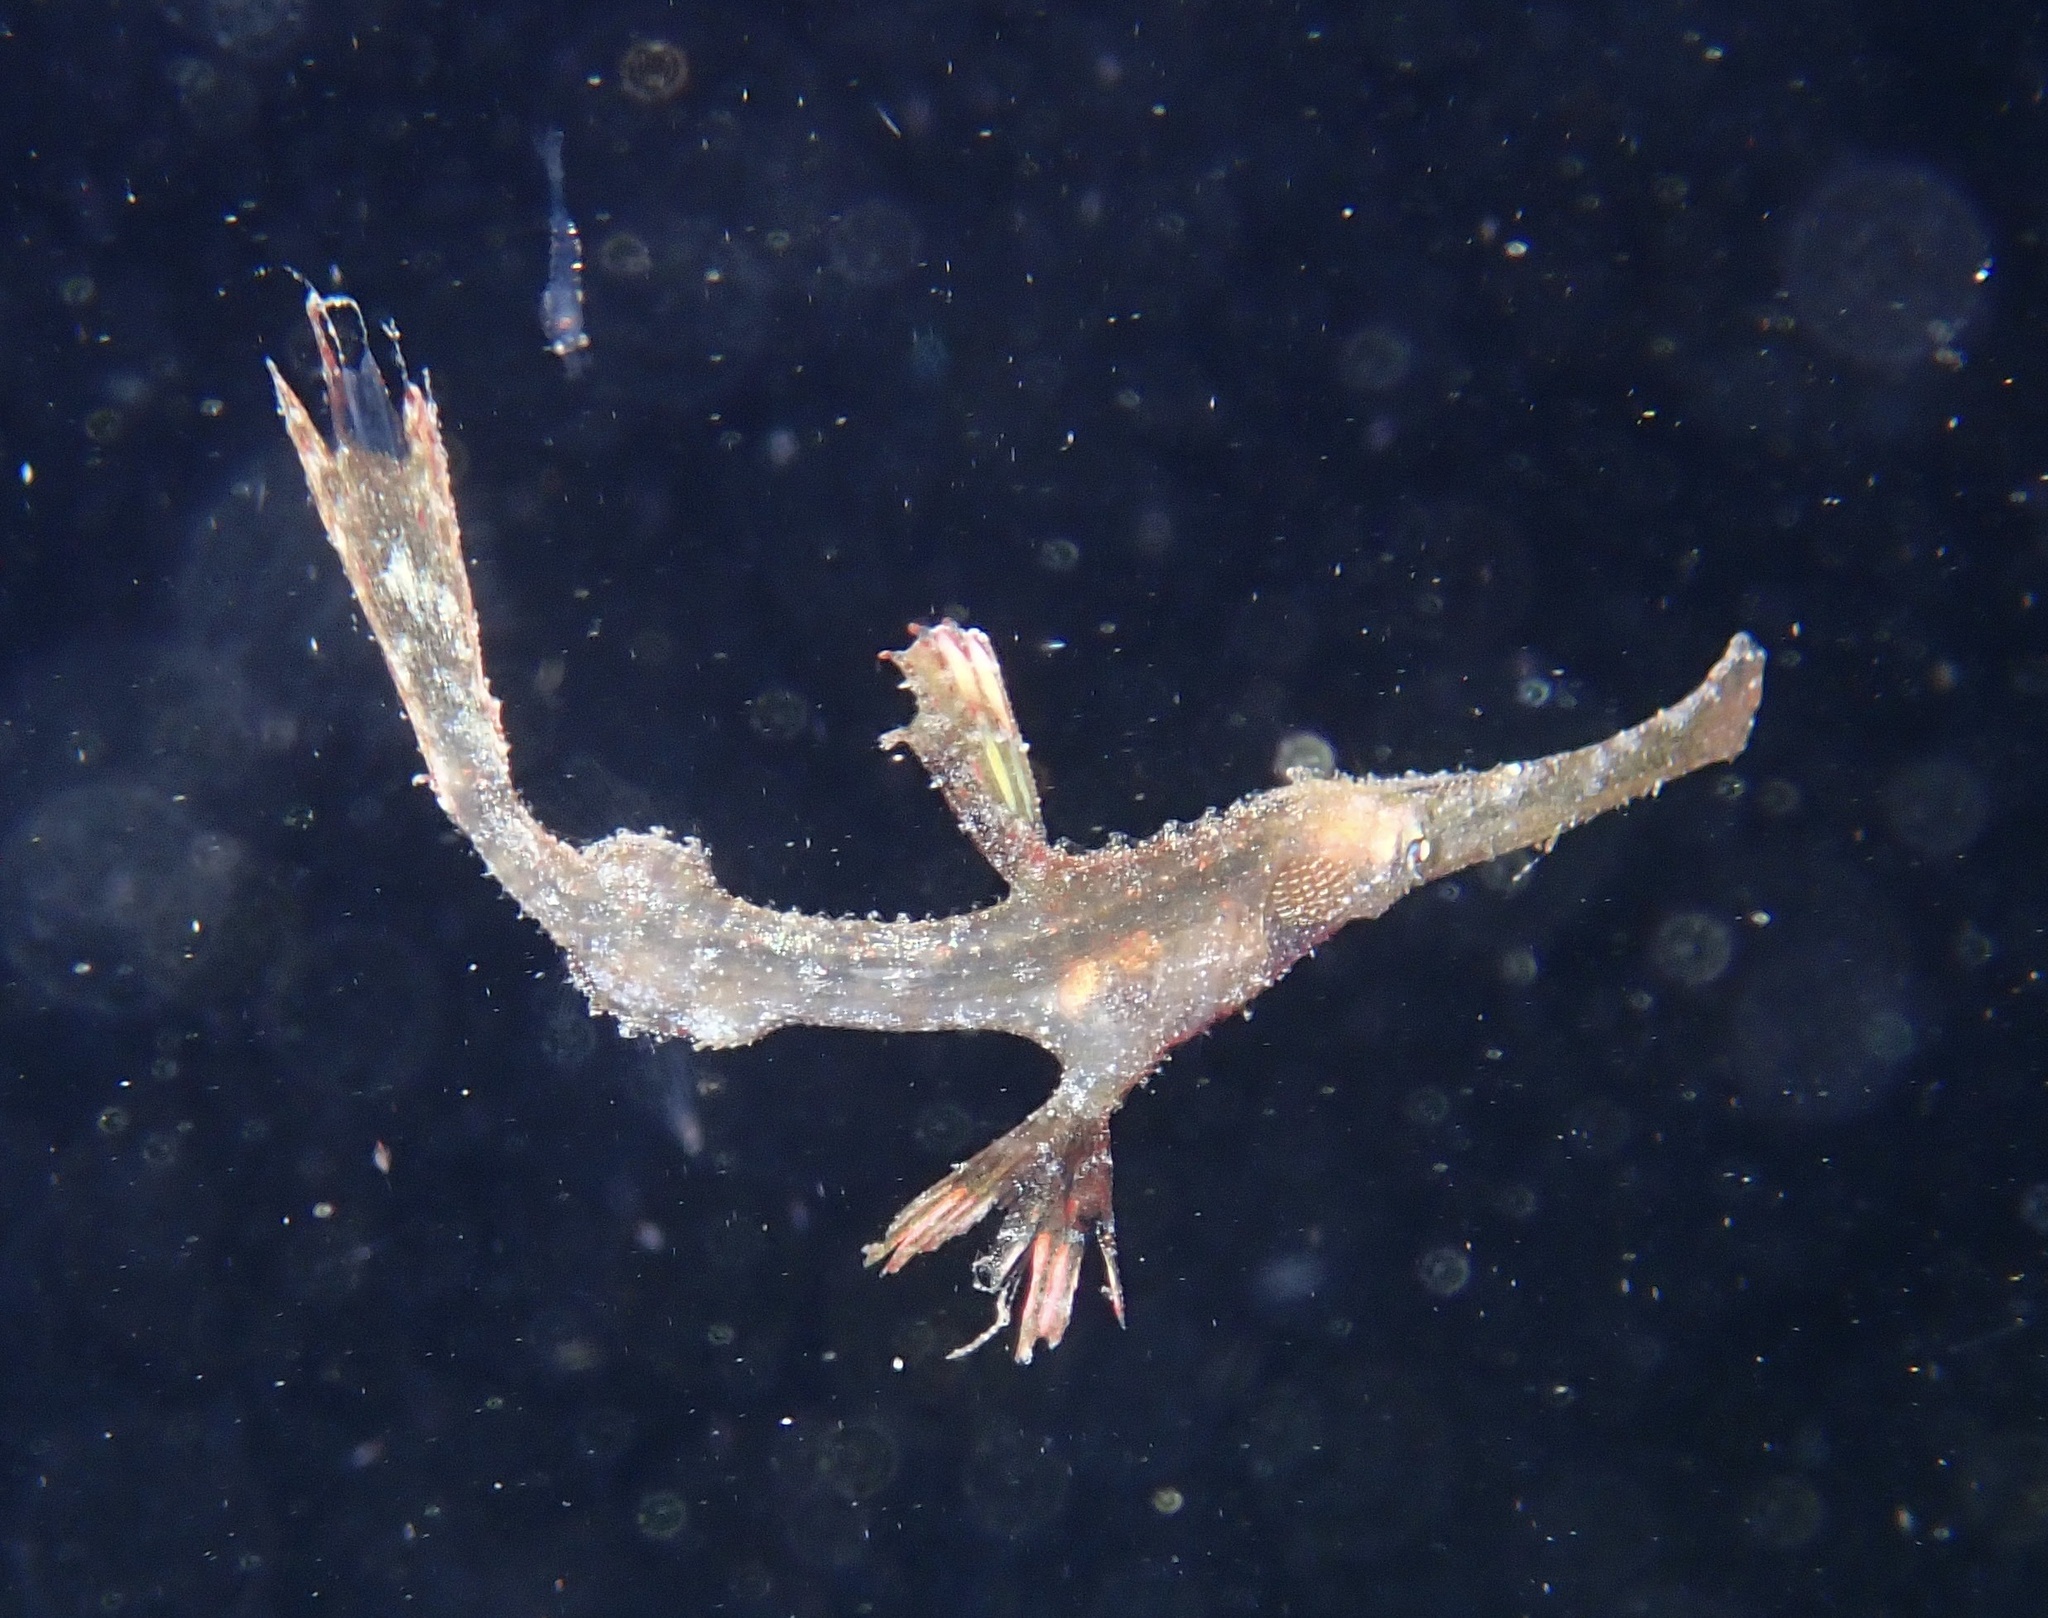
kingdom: Animalia
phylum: Chordata
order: Syngnathiformes
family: Solenostomidae
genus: Solenostomus
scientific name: Solenostomus leptosoma
